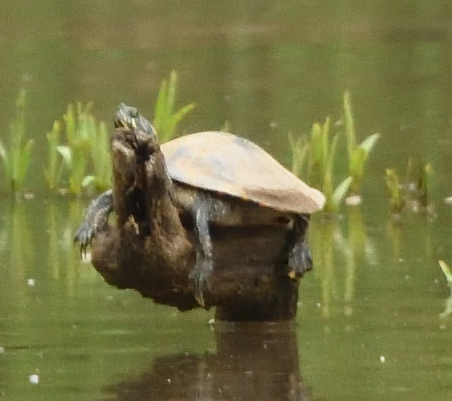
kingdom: Animalia
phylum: Chordata
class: Testudines
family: Emydidae
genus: Pseudemys
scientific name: Pseudemys concinna
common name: Eastern river cooter
